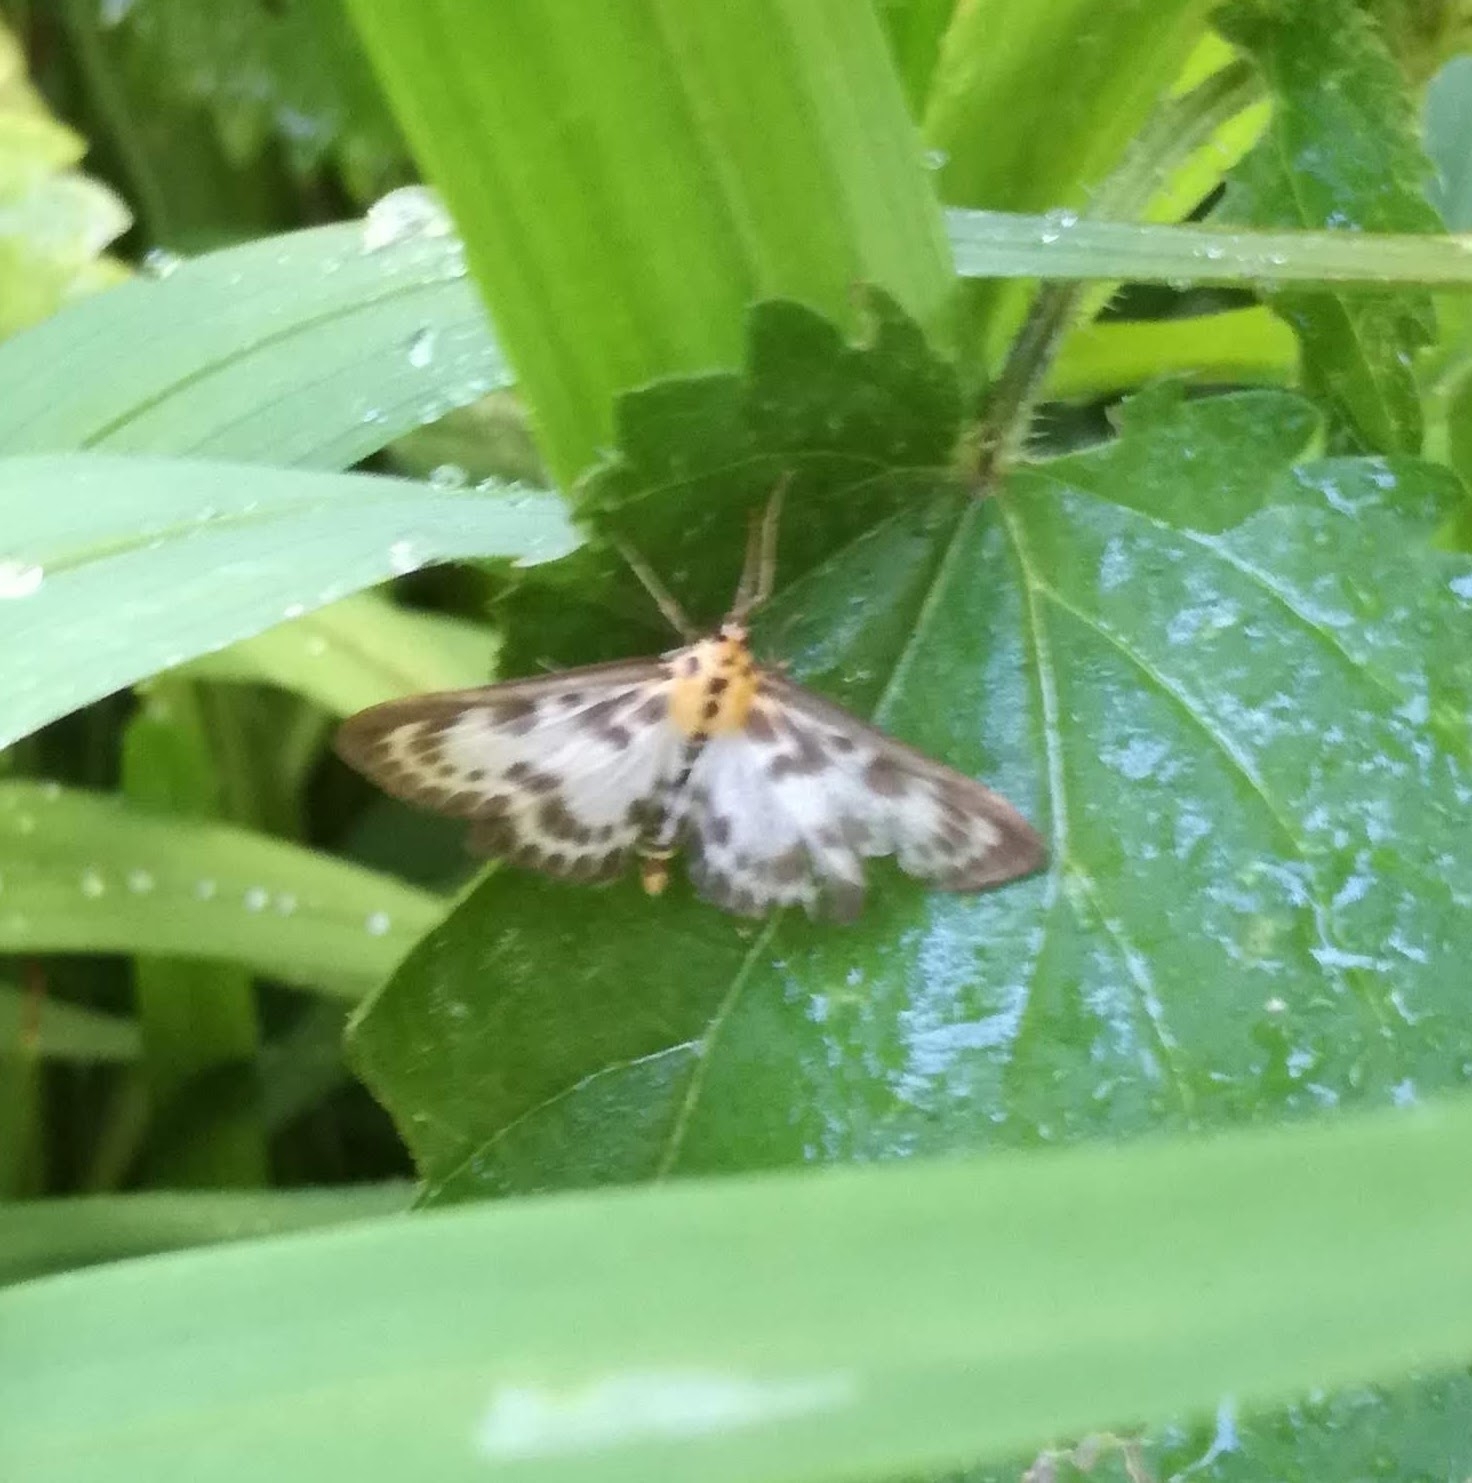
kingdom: Animalia
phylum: Arthropoda
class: Insecta
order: Lepidoptera
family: Crambidae
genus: Anania
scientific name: Anania hortulata
